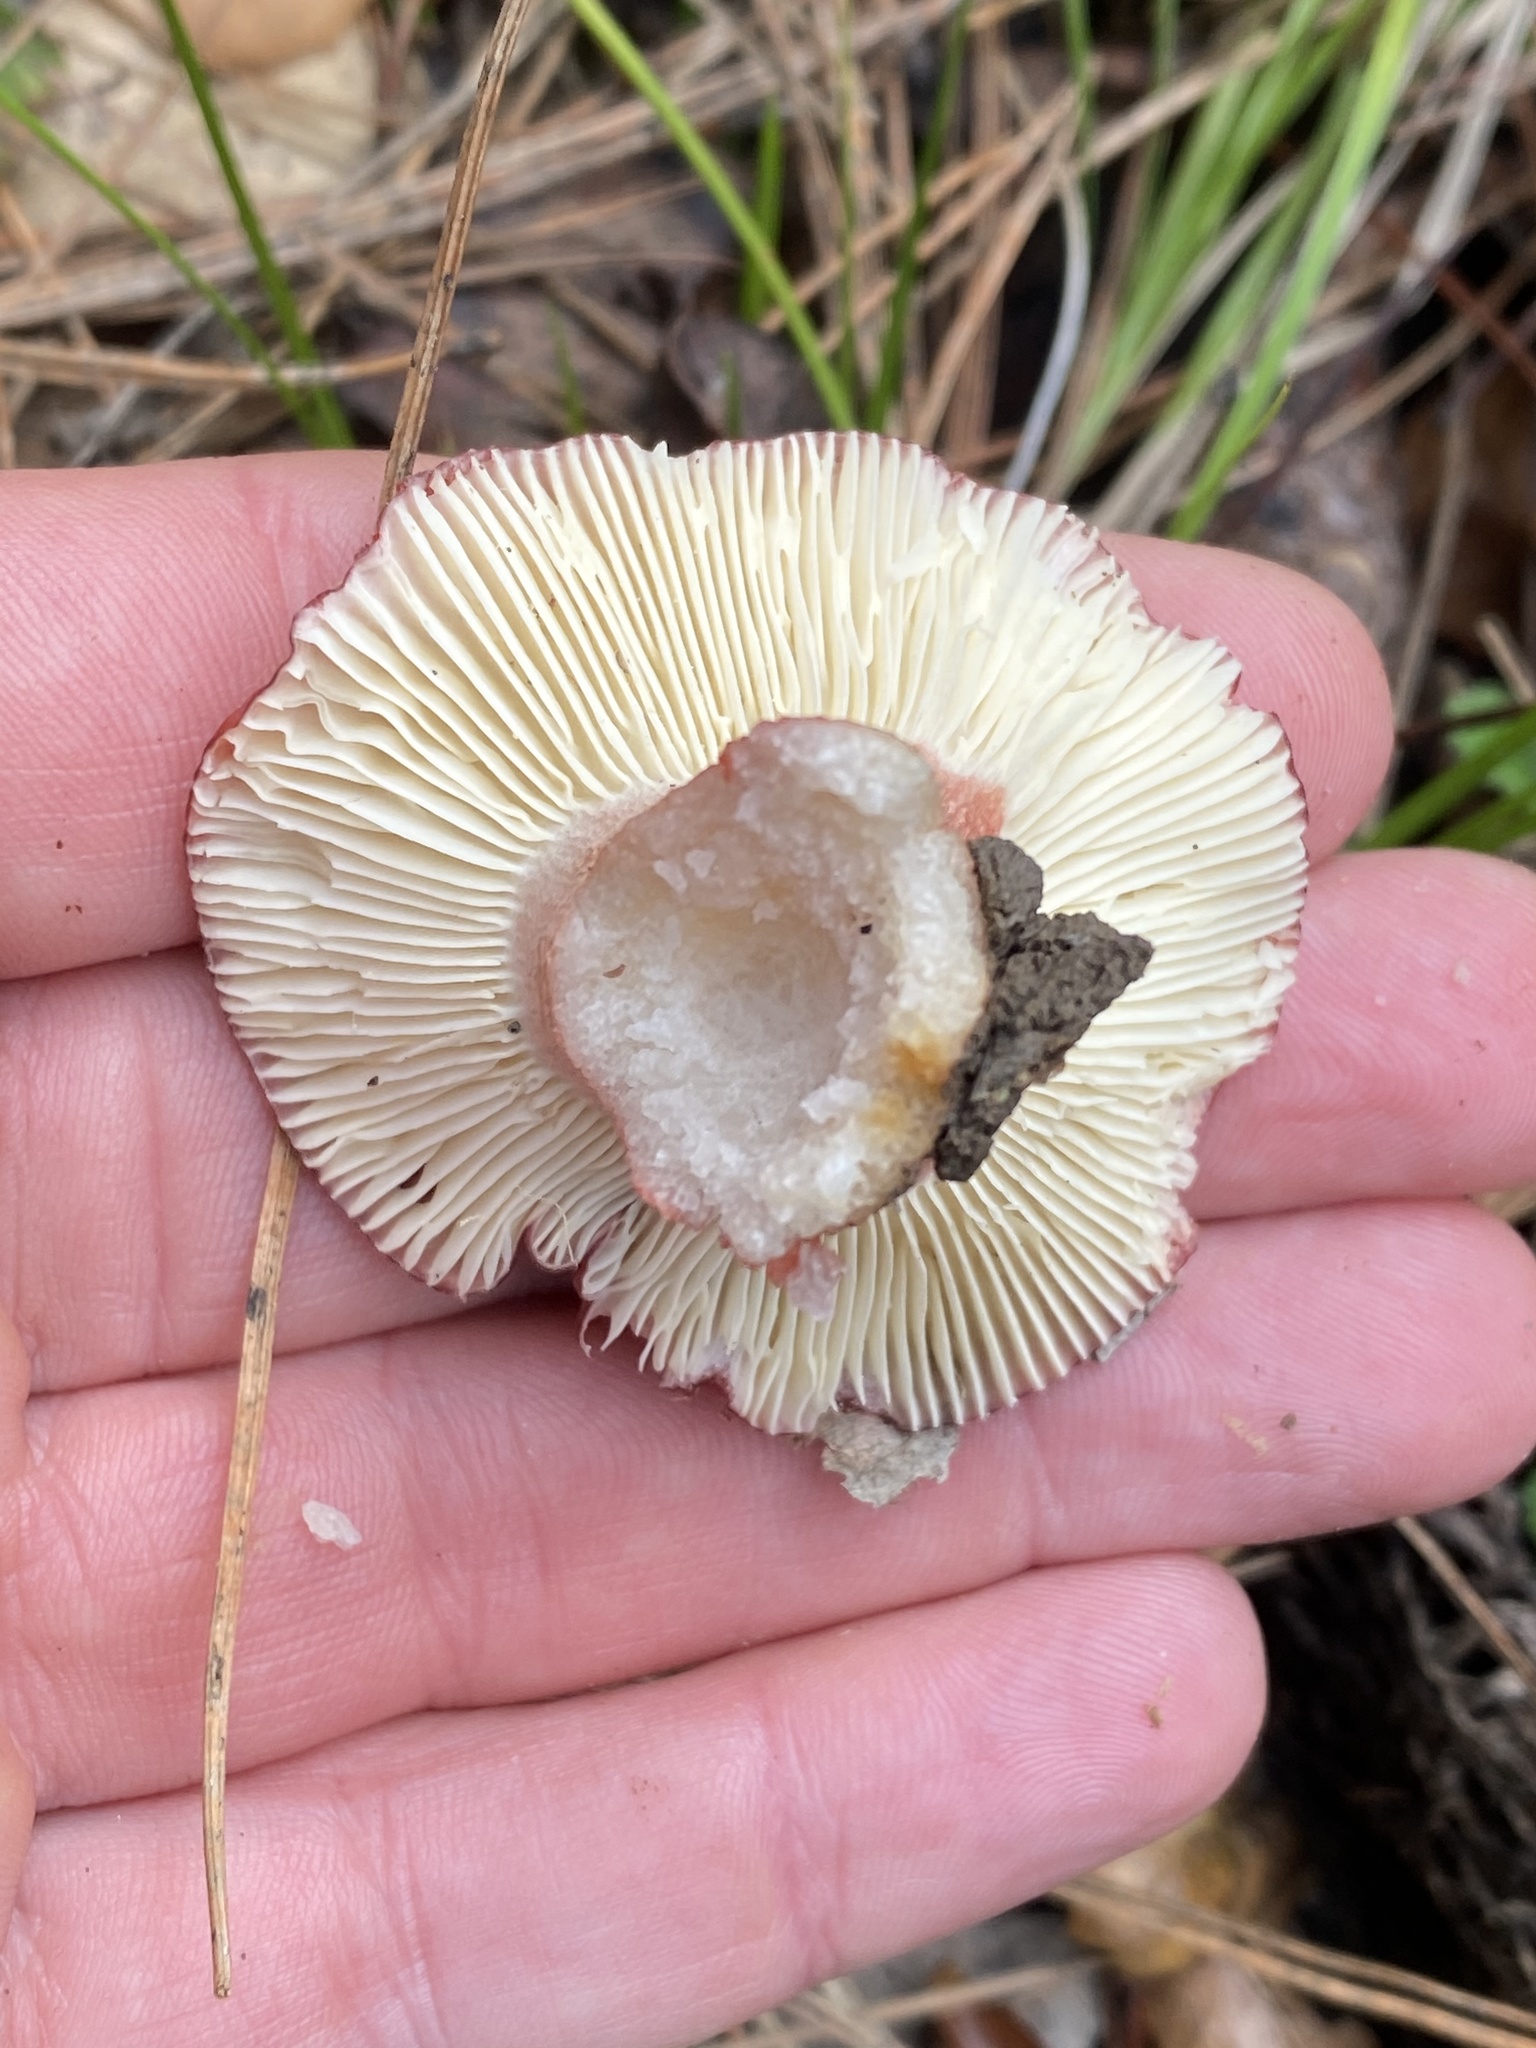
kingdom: Fungi
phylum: Basidiomycota
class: Agaricomycetes
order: Russulales
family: Russulaceae
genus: Russula
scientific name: Russula rhodocephala
